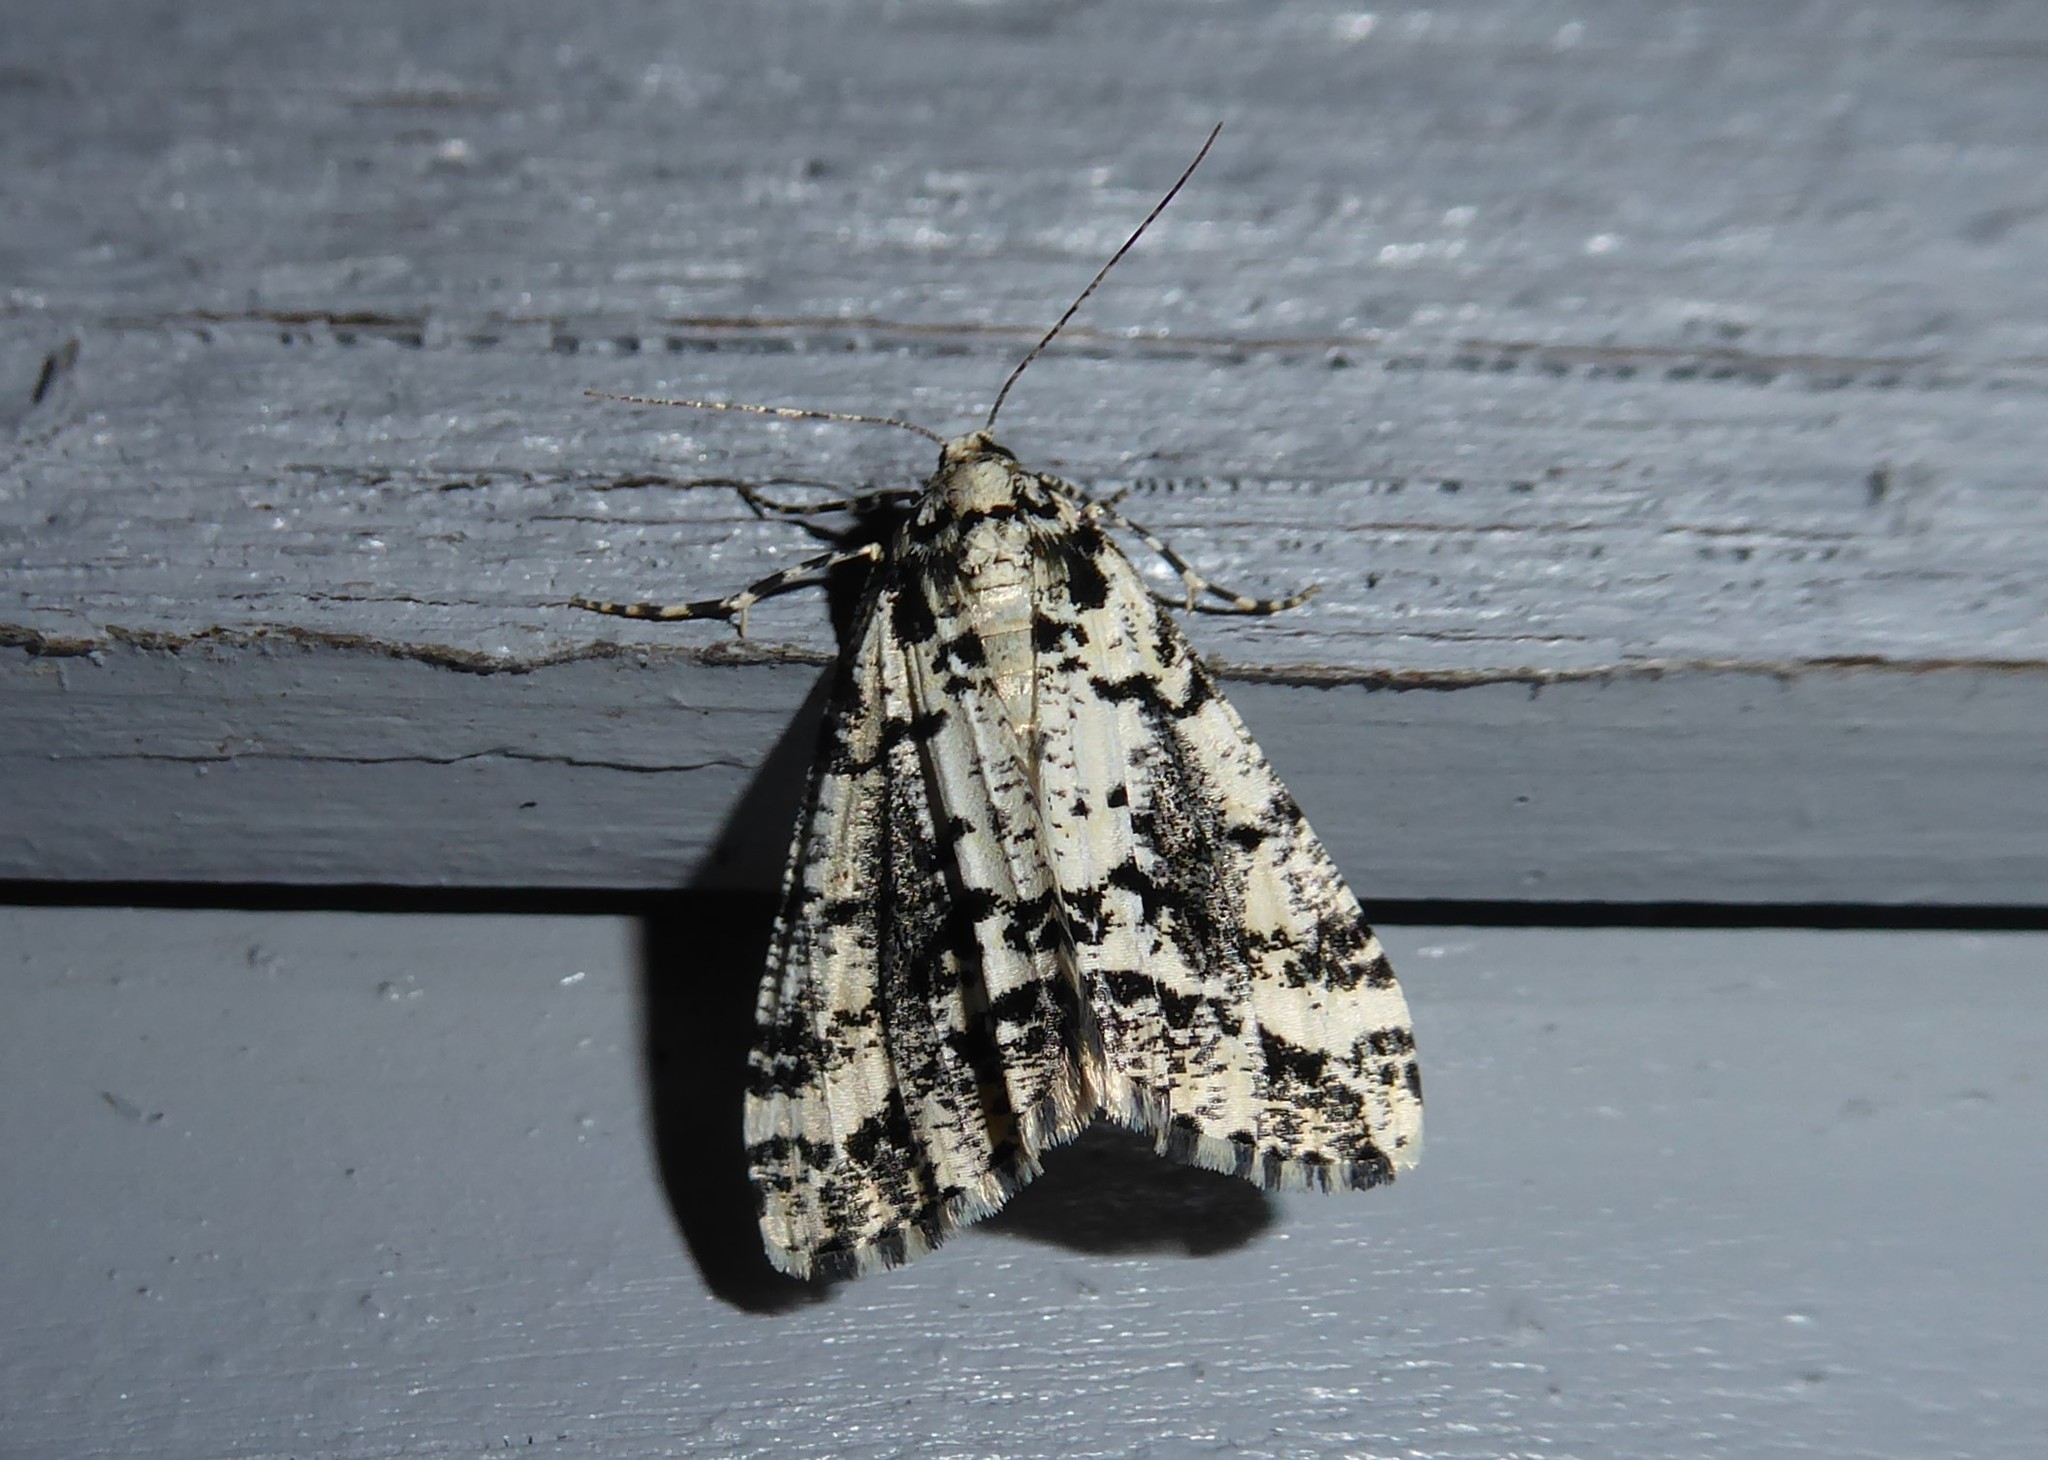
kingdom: Animalia
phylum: Arthropoda
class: Insecta
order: Lepidoptera
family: Geometridae
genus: Pseudocoremia
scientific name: Pseudocoremia leucelaea
